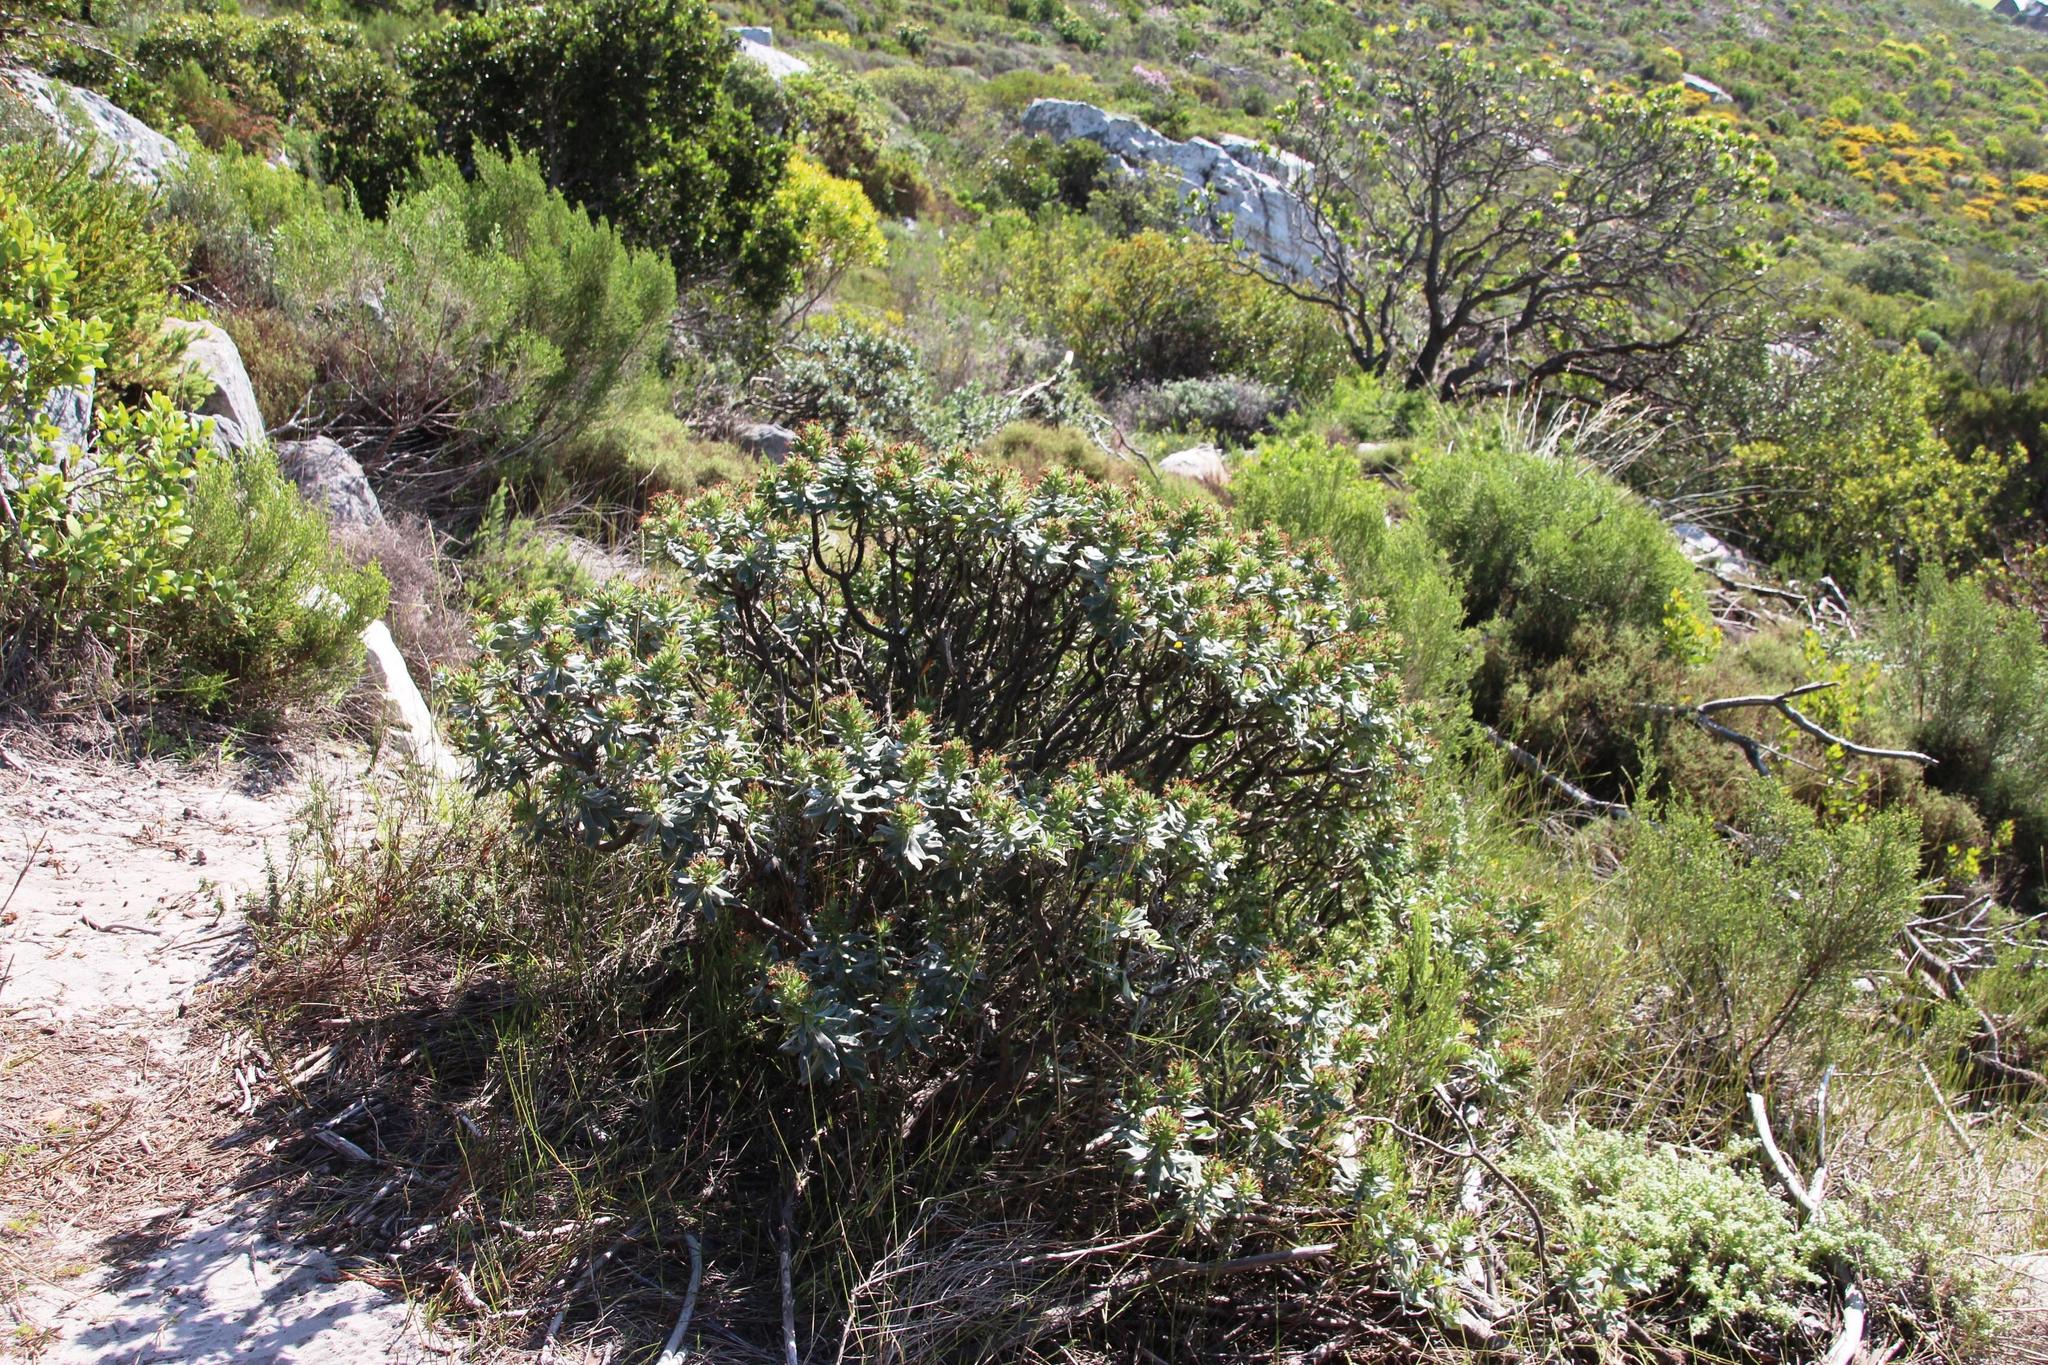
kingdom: Plantae
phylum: Tracheophyta
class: Magnoliopsida
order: Boraginales
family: Boraginaceae
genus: Lobostemon
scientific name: Lobostemon montanus
